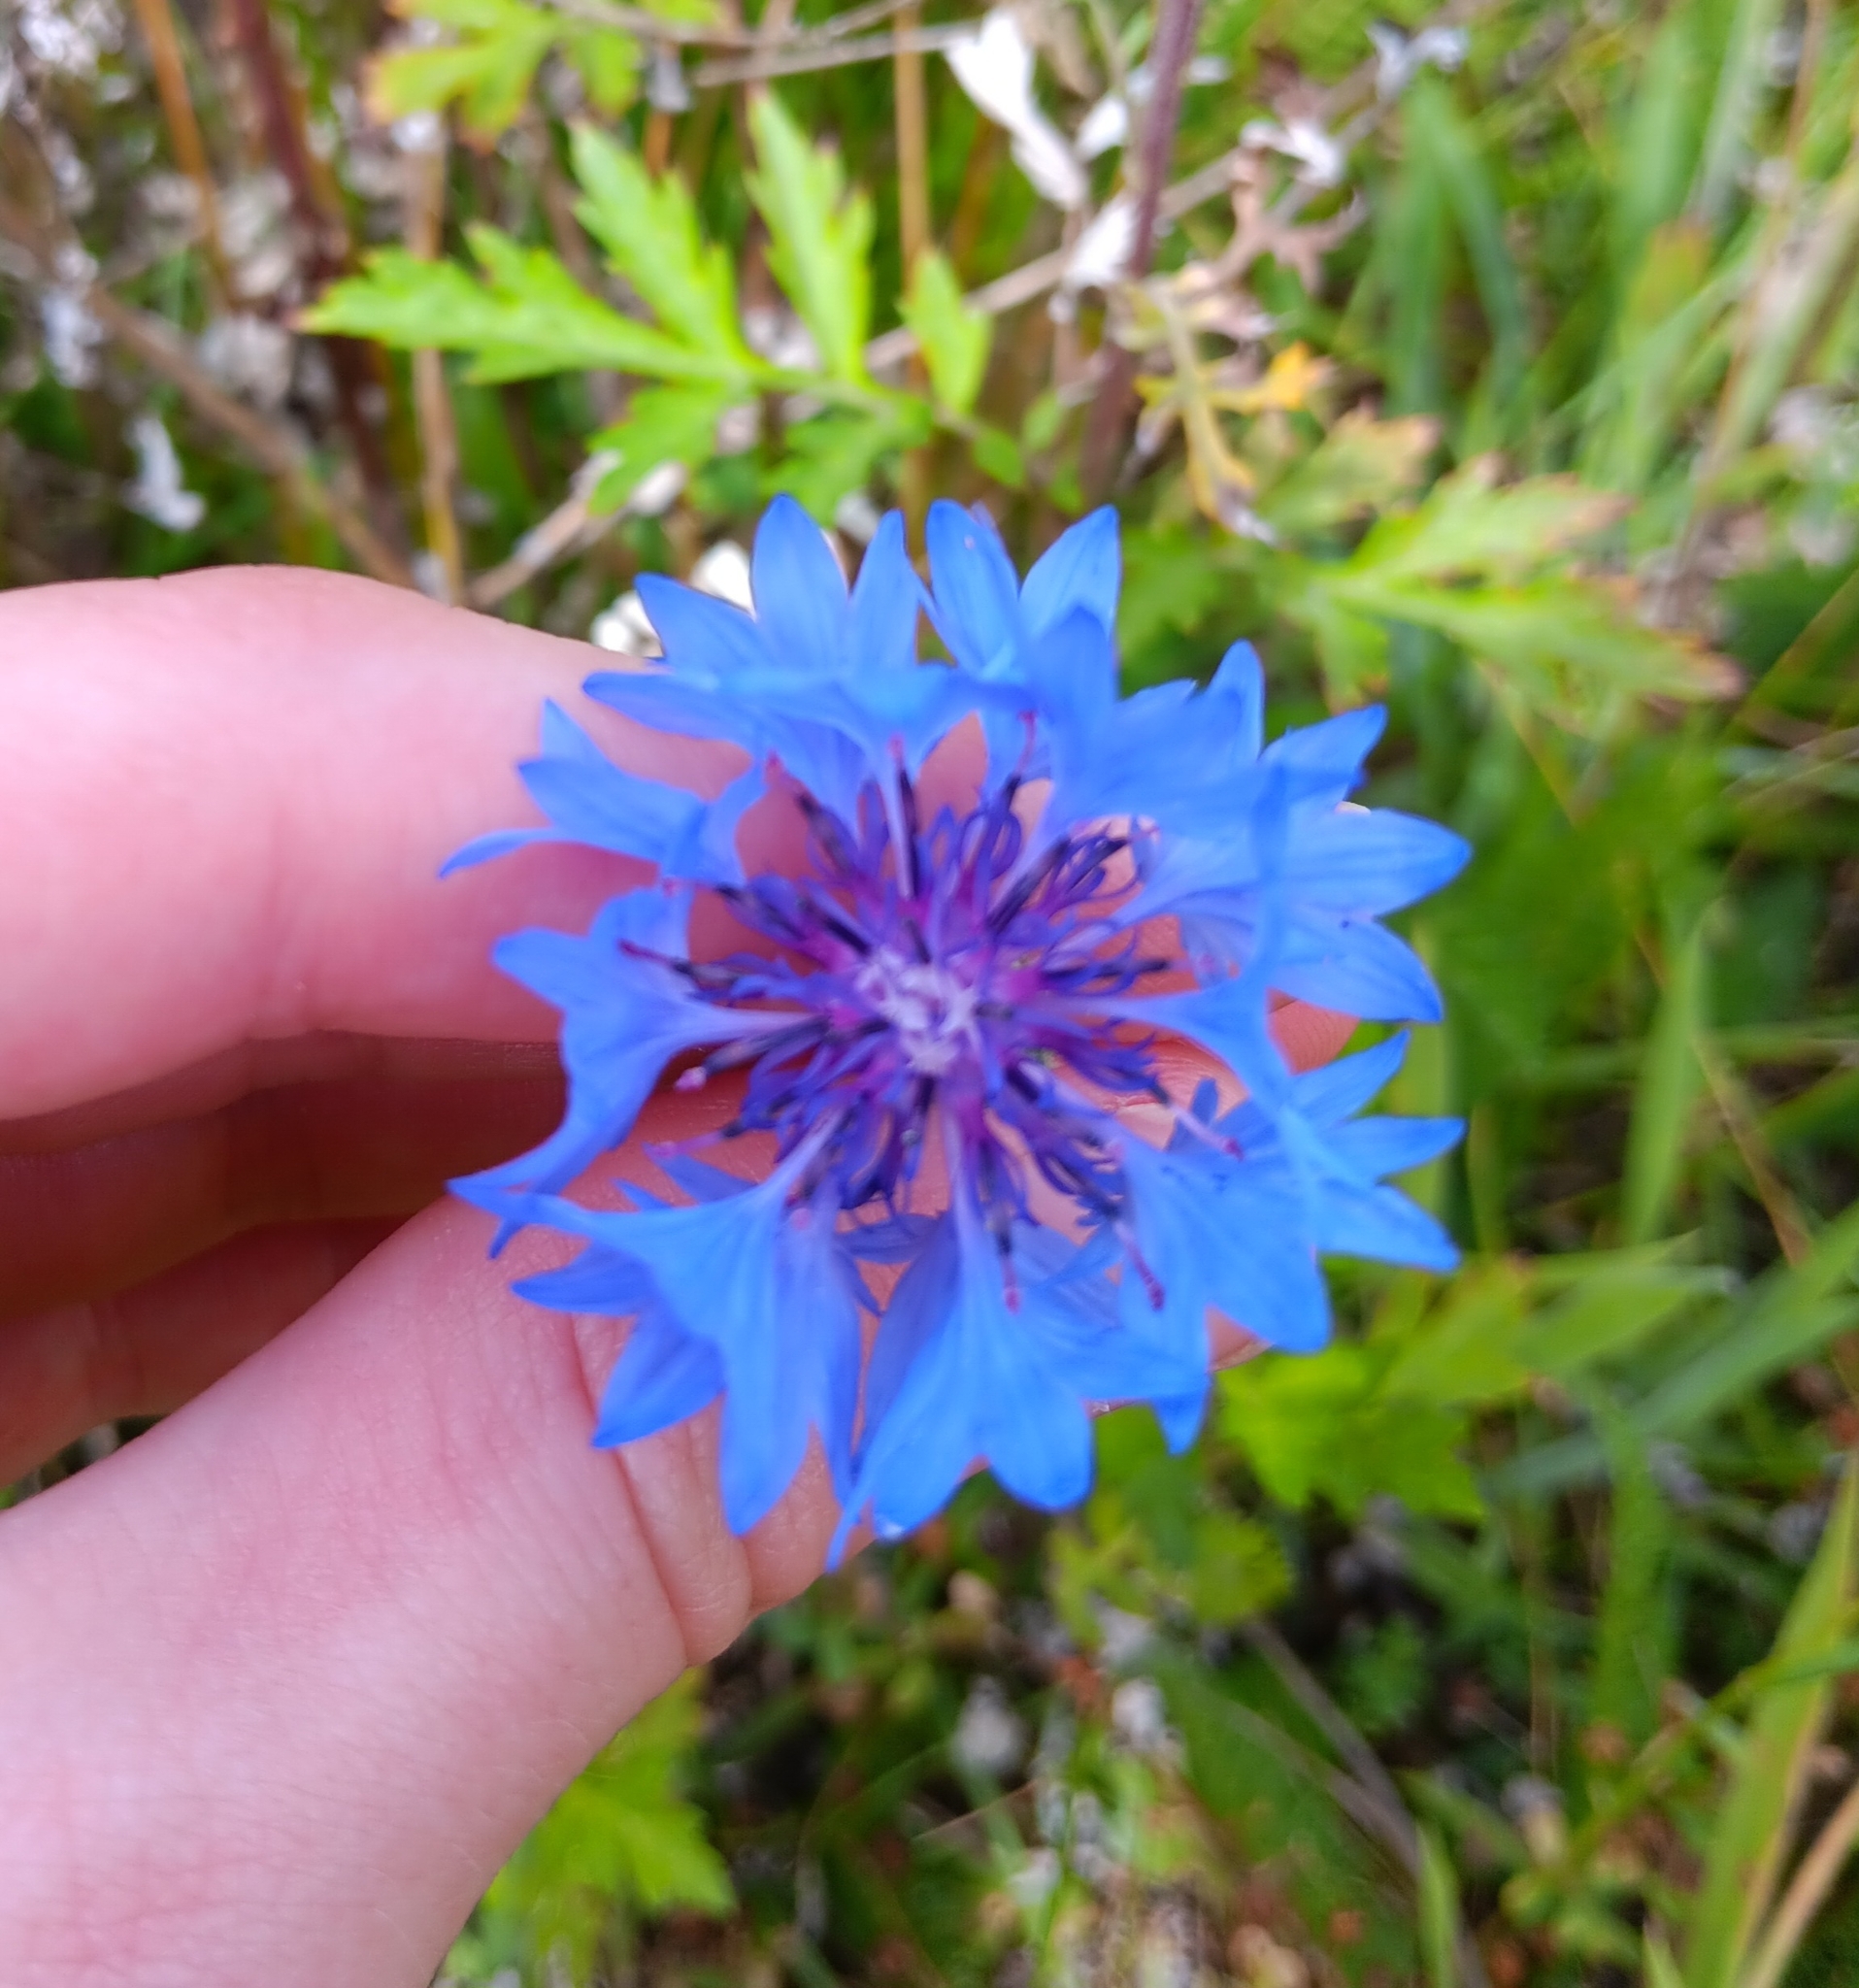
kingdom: Plantae
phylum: Tracheophyta
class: Magnoliopsida
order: Asterales
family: Asteraceae
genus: Centaurea
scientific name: Centaurea cyanus
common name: Cornflower
